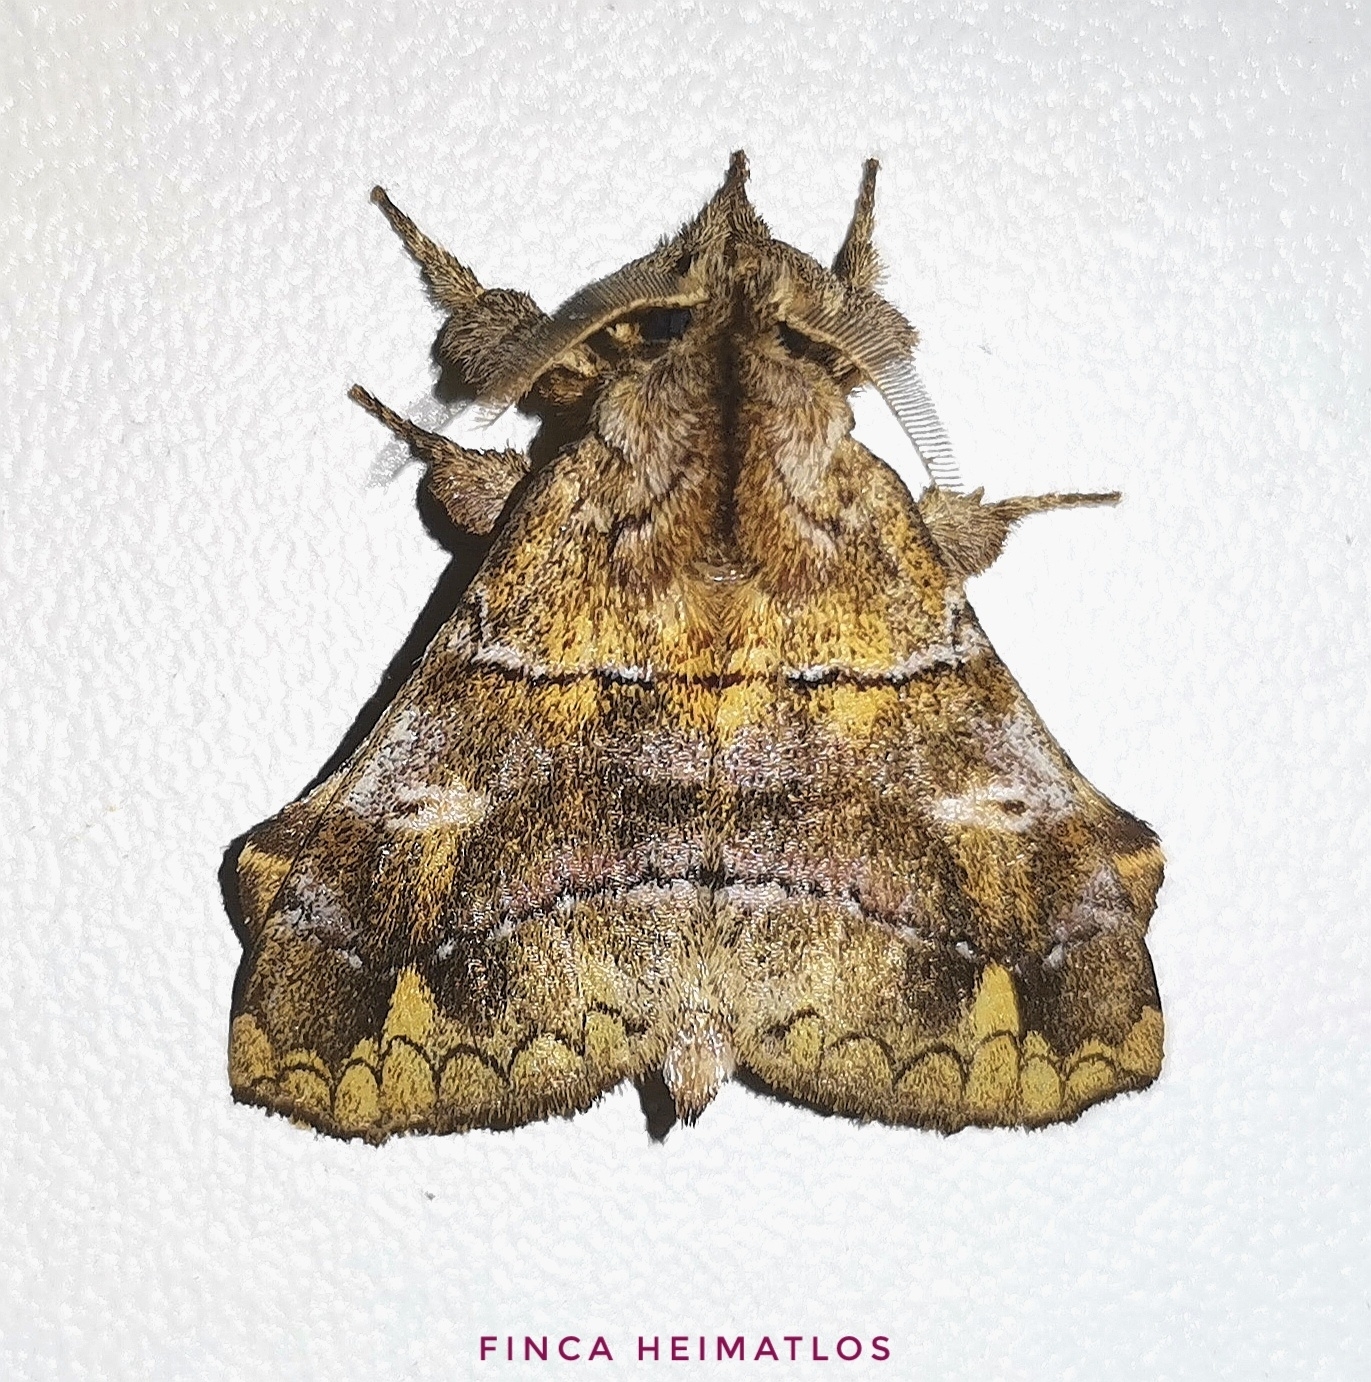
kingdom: Animalia
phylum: Arthropoda
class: Insecta
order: Lepidoptera
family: Apatelodidae
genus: Zanola
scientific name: Zanola verago
